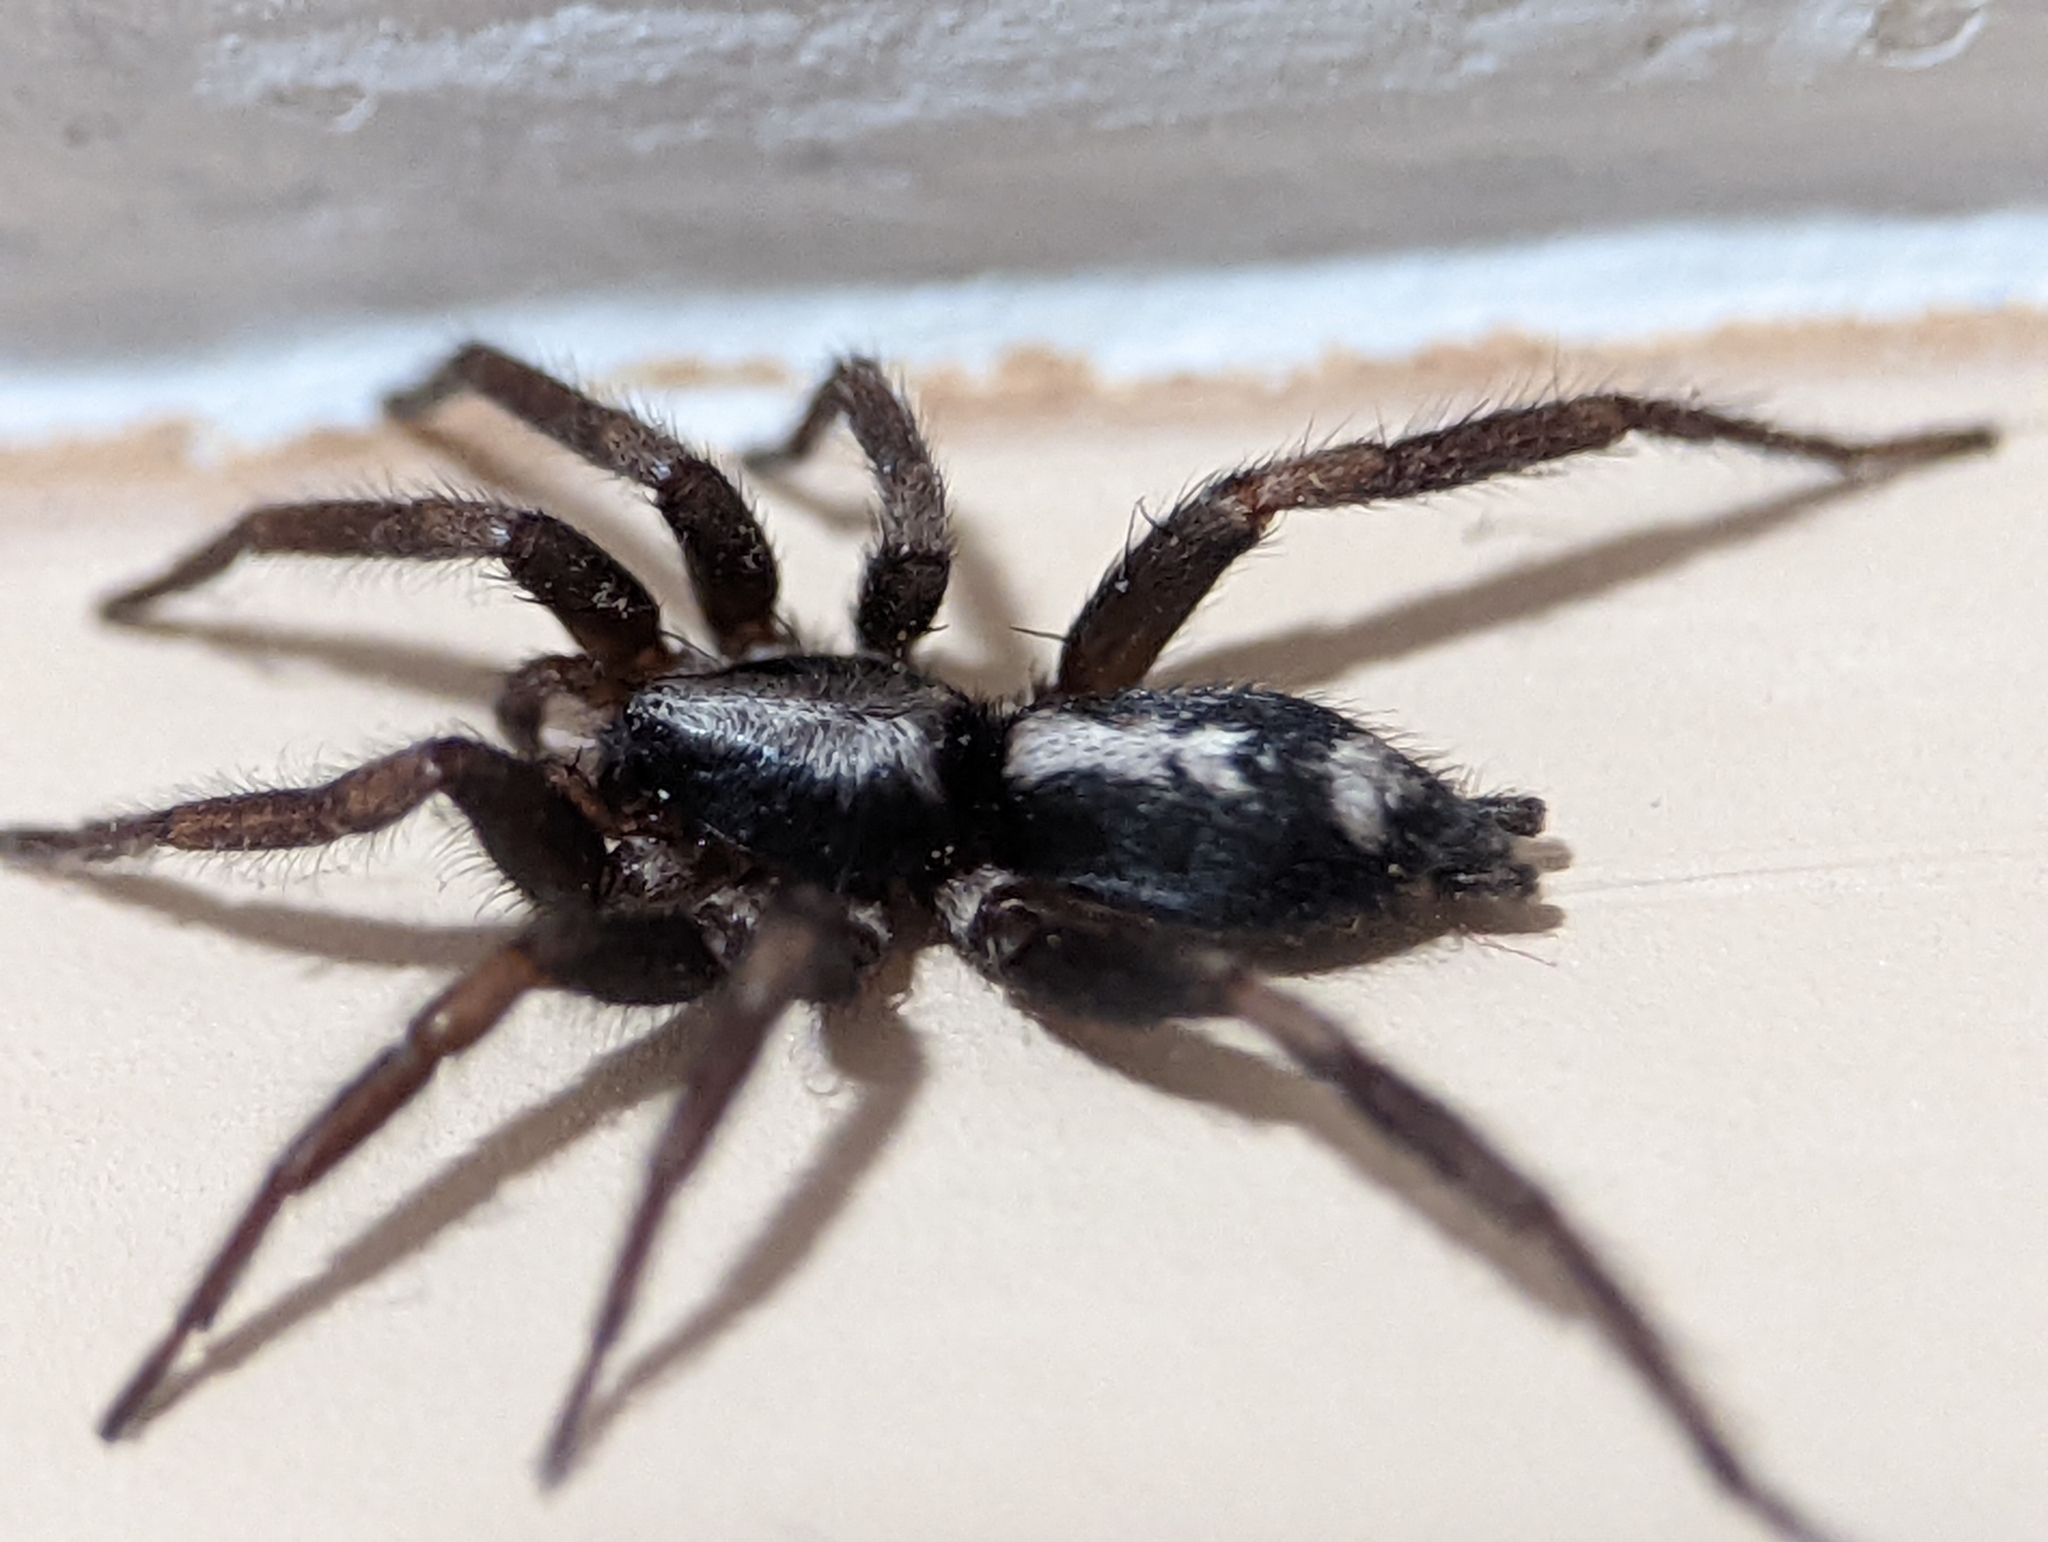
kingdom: Animalia
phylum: Arthropoda
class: Arachnida
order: Araneae
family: Gnaphosidae
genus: Herpyllus
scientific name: Herpyllus ecclesiasticus
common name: Eastern parson spider
